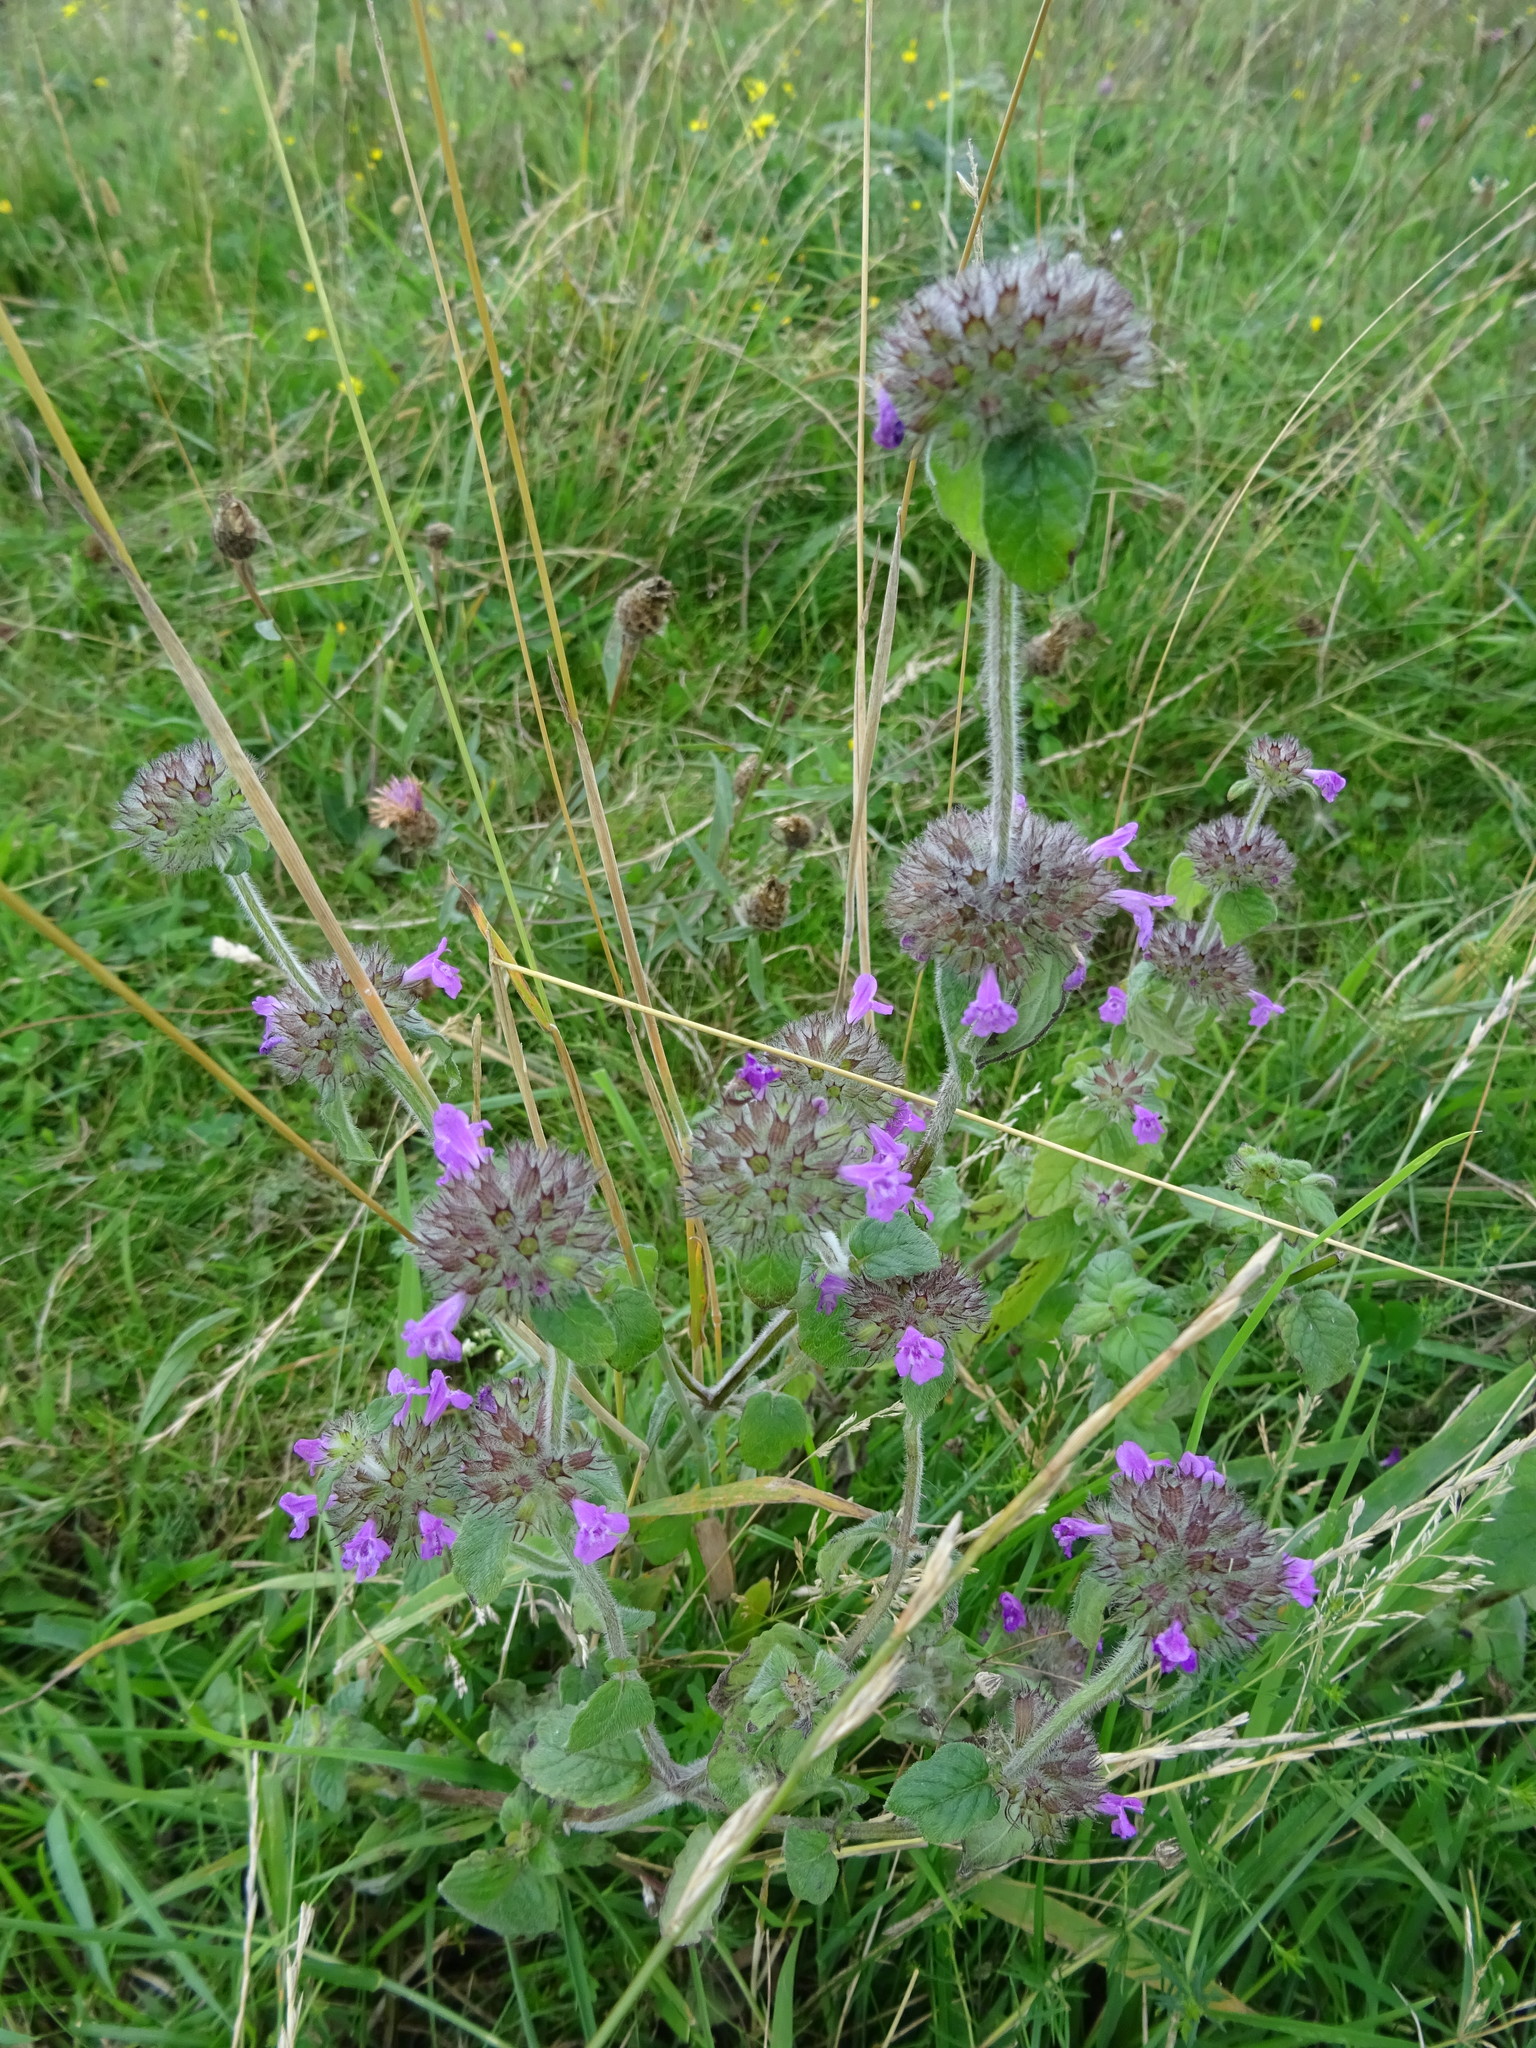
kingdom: Plantae
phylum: Tracheophyta
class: Magnoliopsida
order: Lamiales
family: Lamiaceae
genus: Clinopodium
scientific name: Clinopodium vulgare
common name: Wild basil
